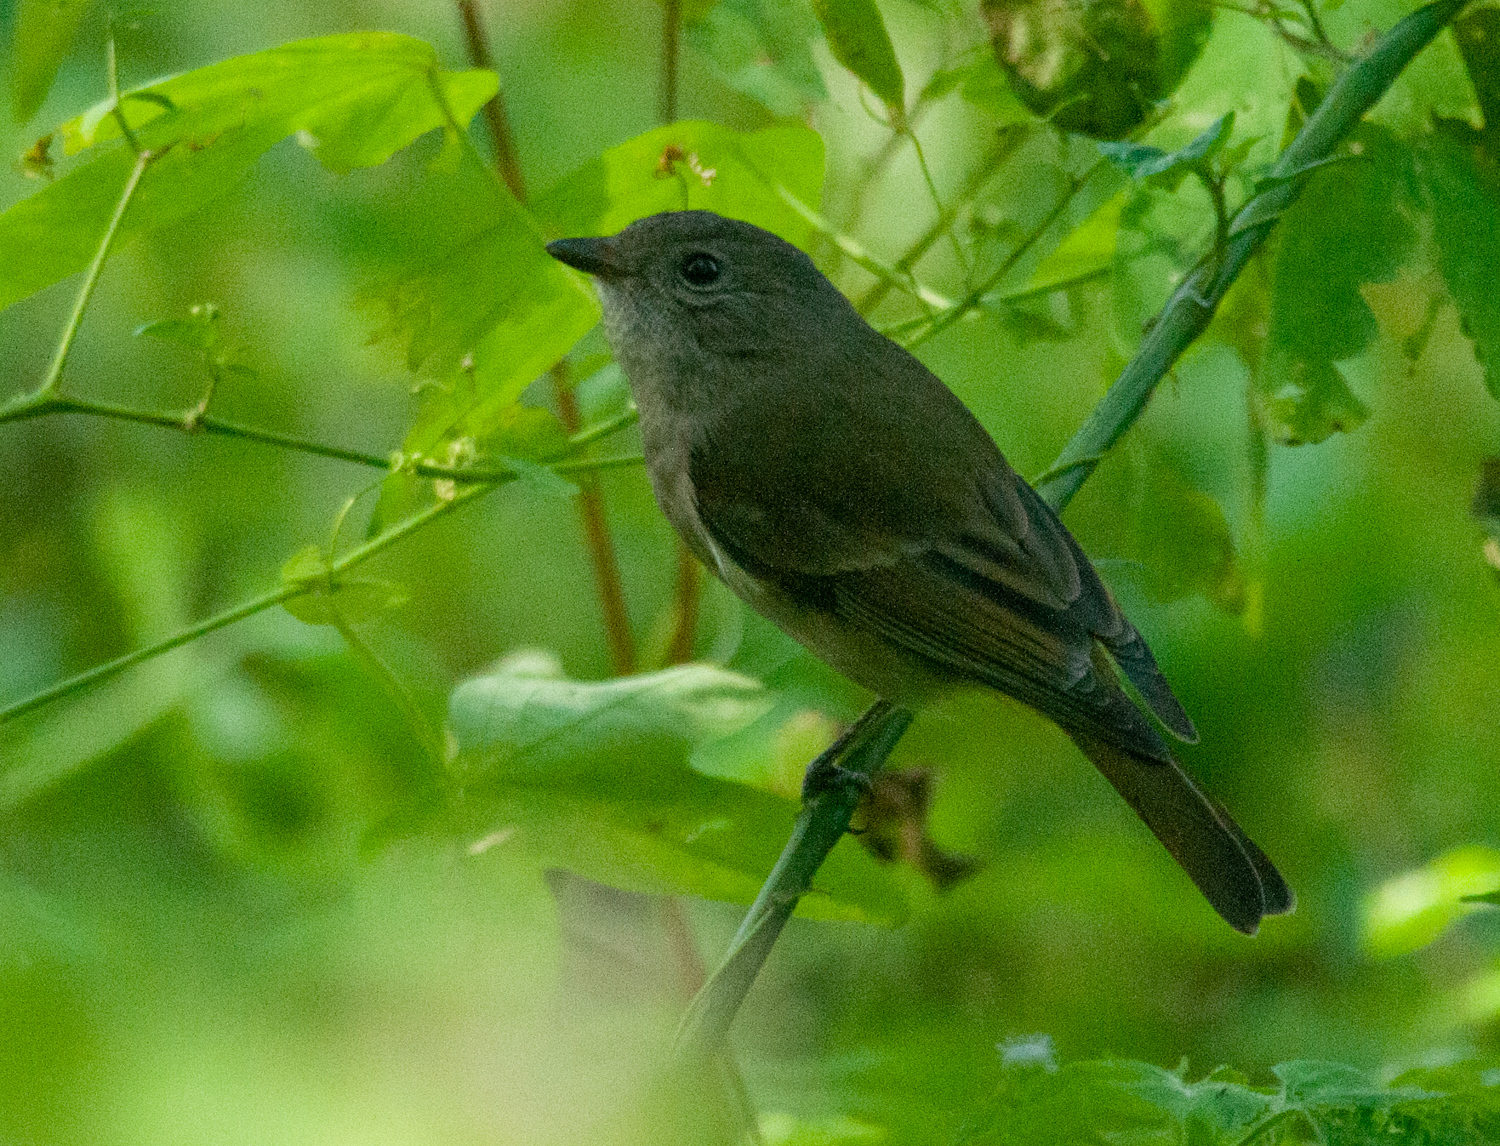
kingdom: Animalia
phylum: Chordata
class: Aves
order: Passeriformes
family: Pachycephalidae
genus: Pachycephala
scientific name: Pachycephala pectoralis
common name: Australian golden whistler
